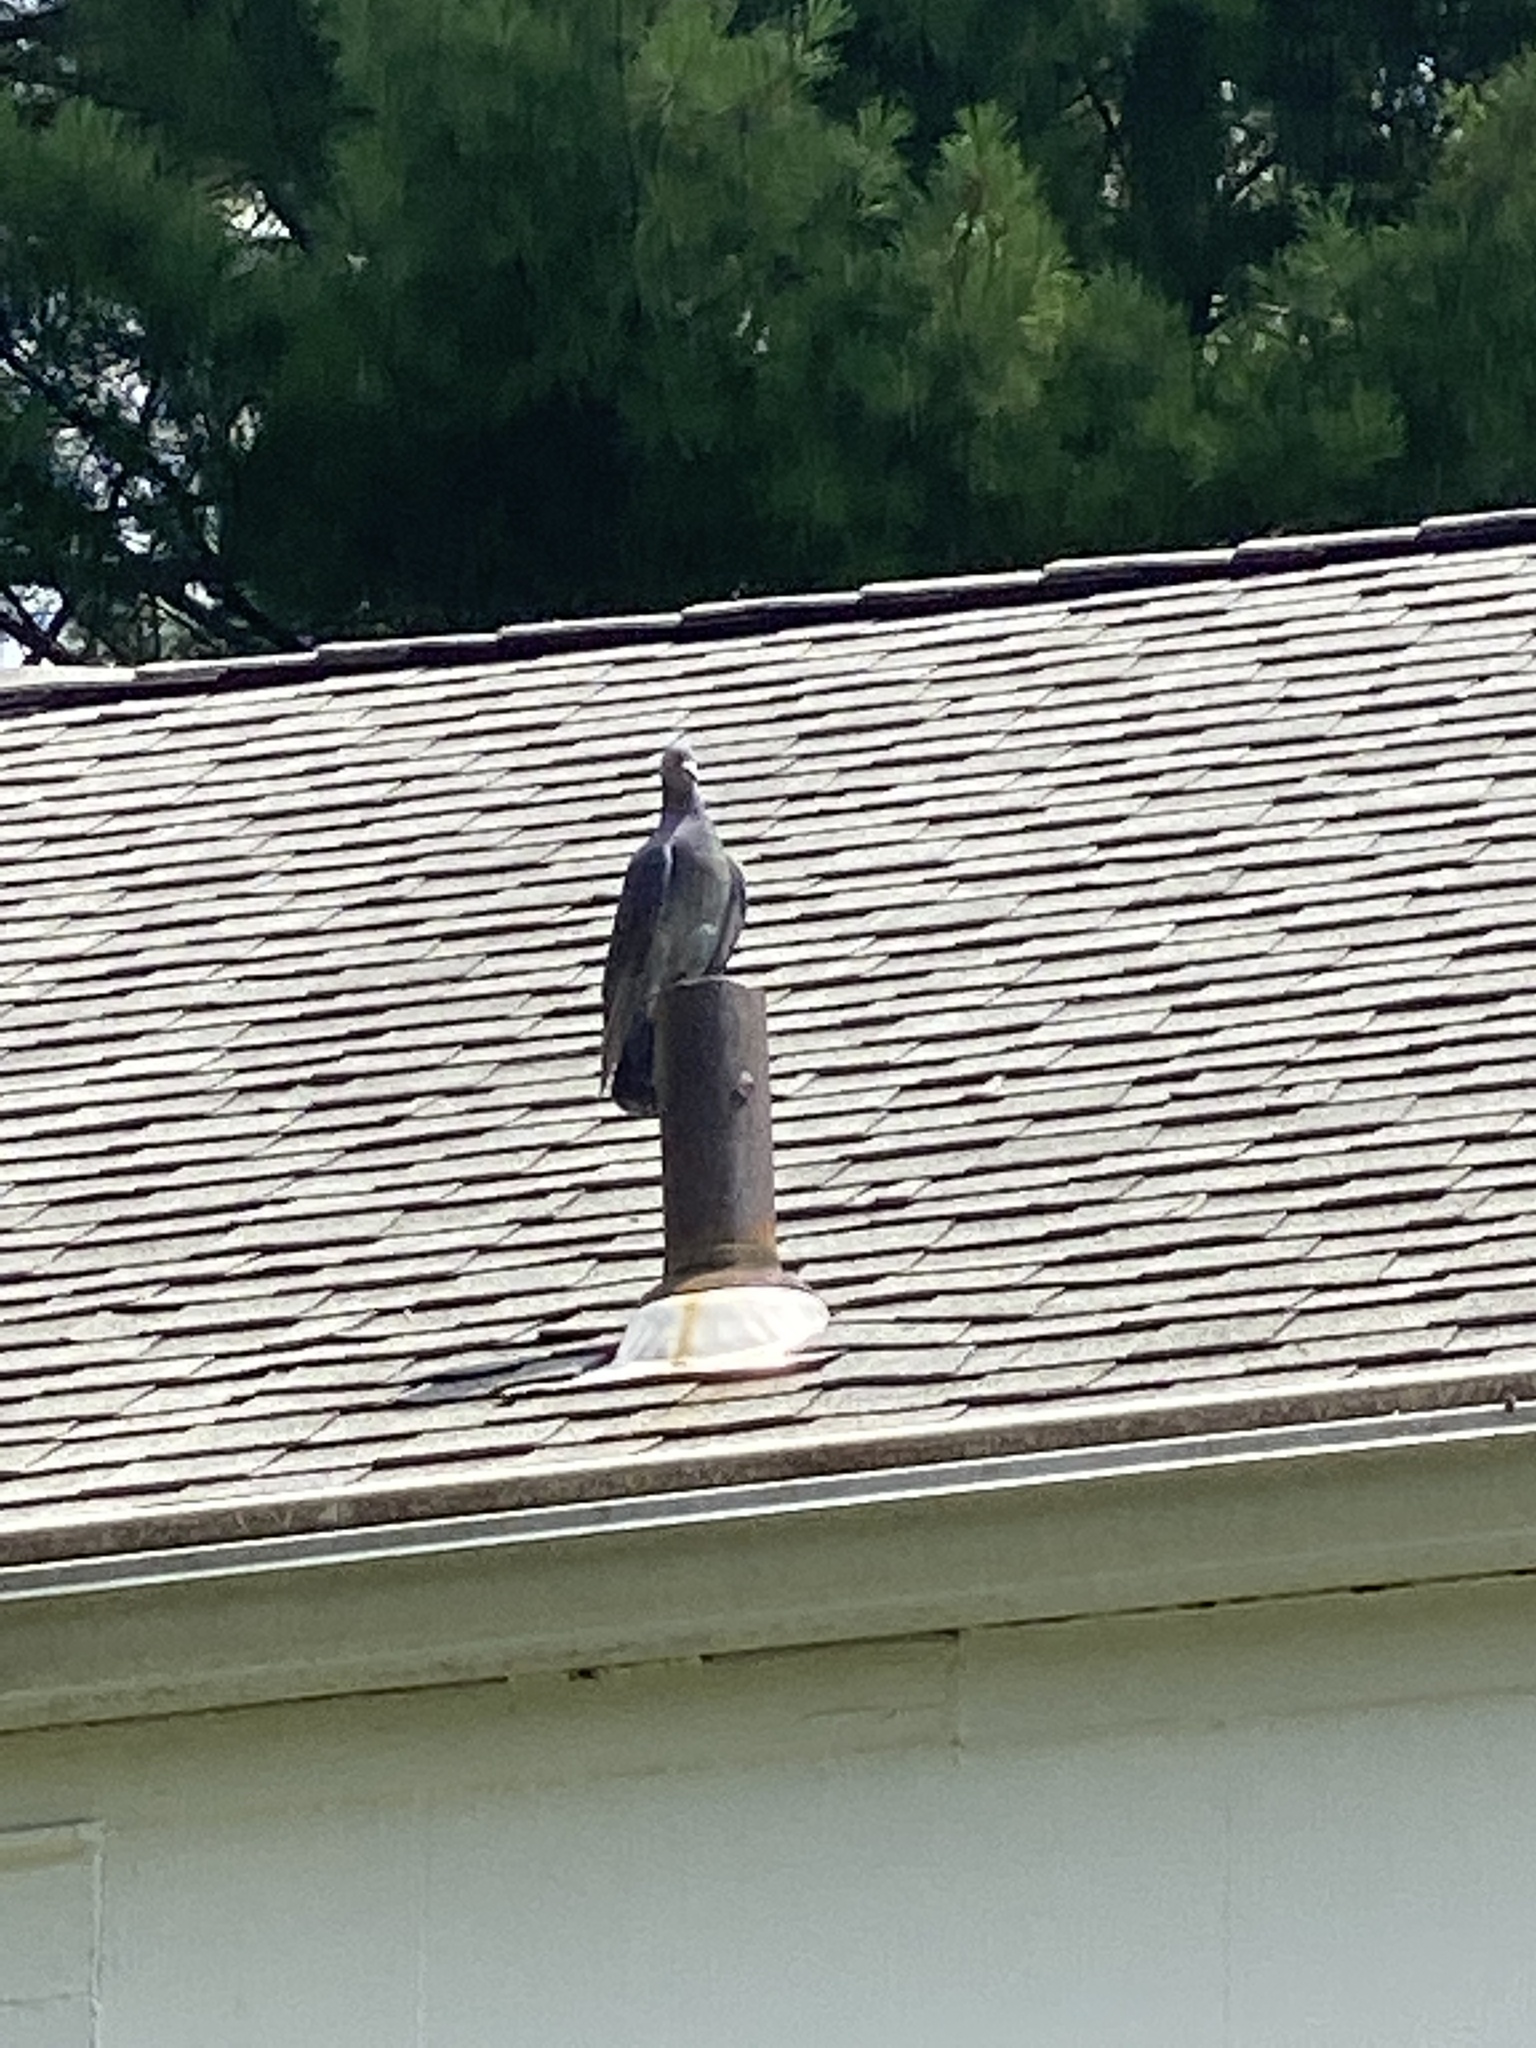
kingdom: Animalia
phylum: Chordata
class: Aves
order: Columbiformes
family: Columbidae
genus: Columba
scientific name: Columba livia
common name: Rock pigeon
